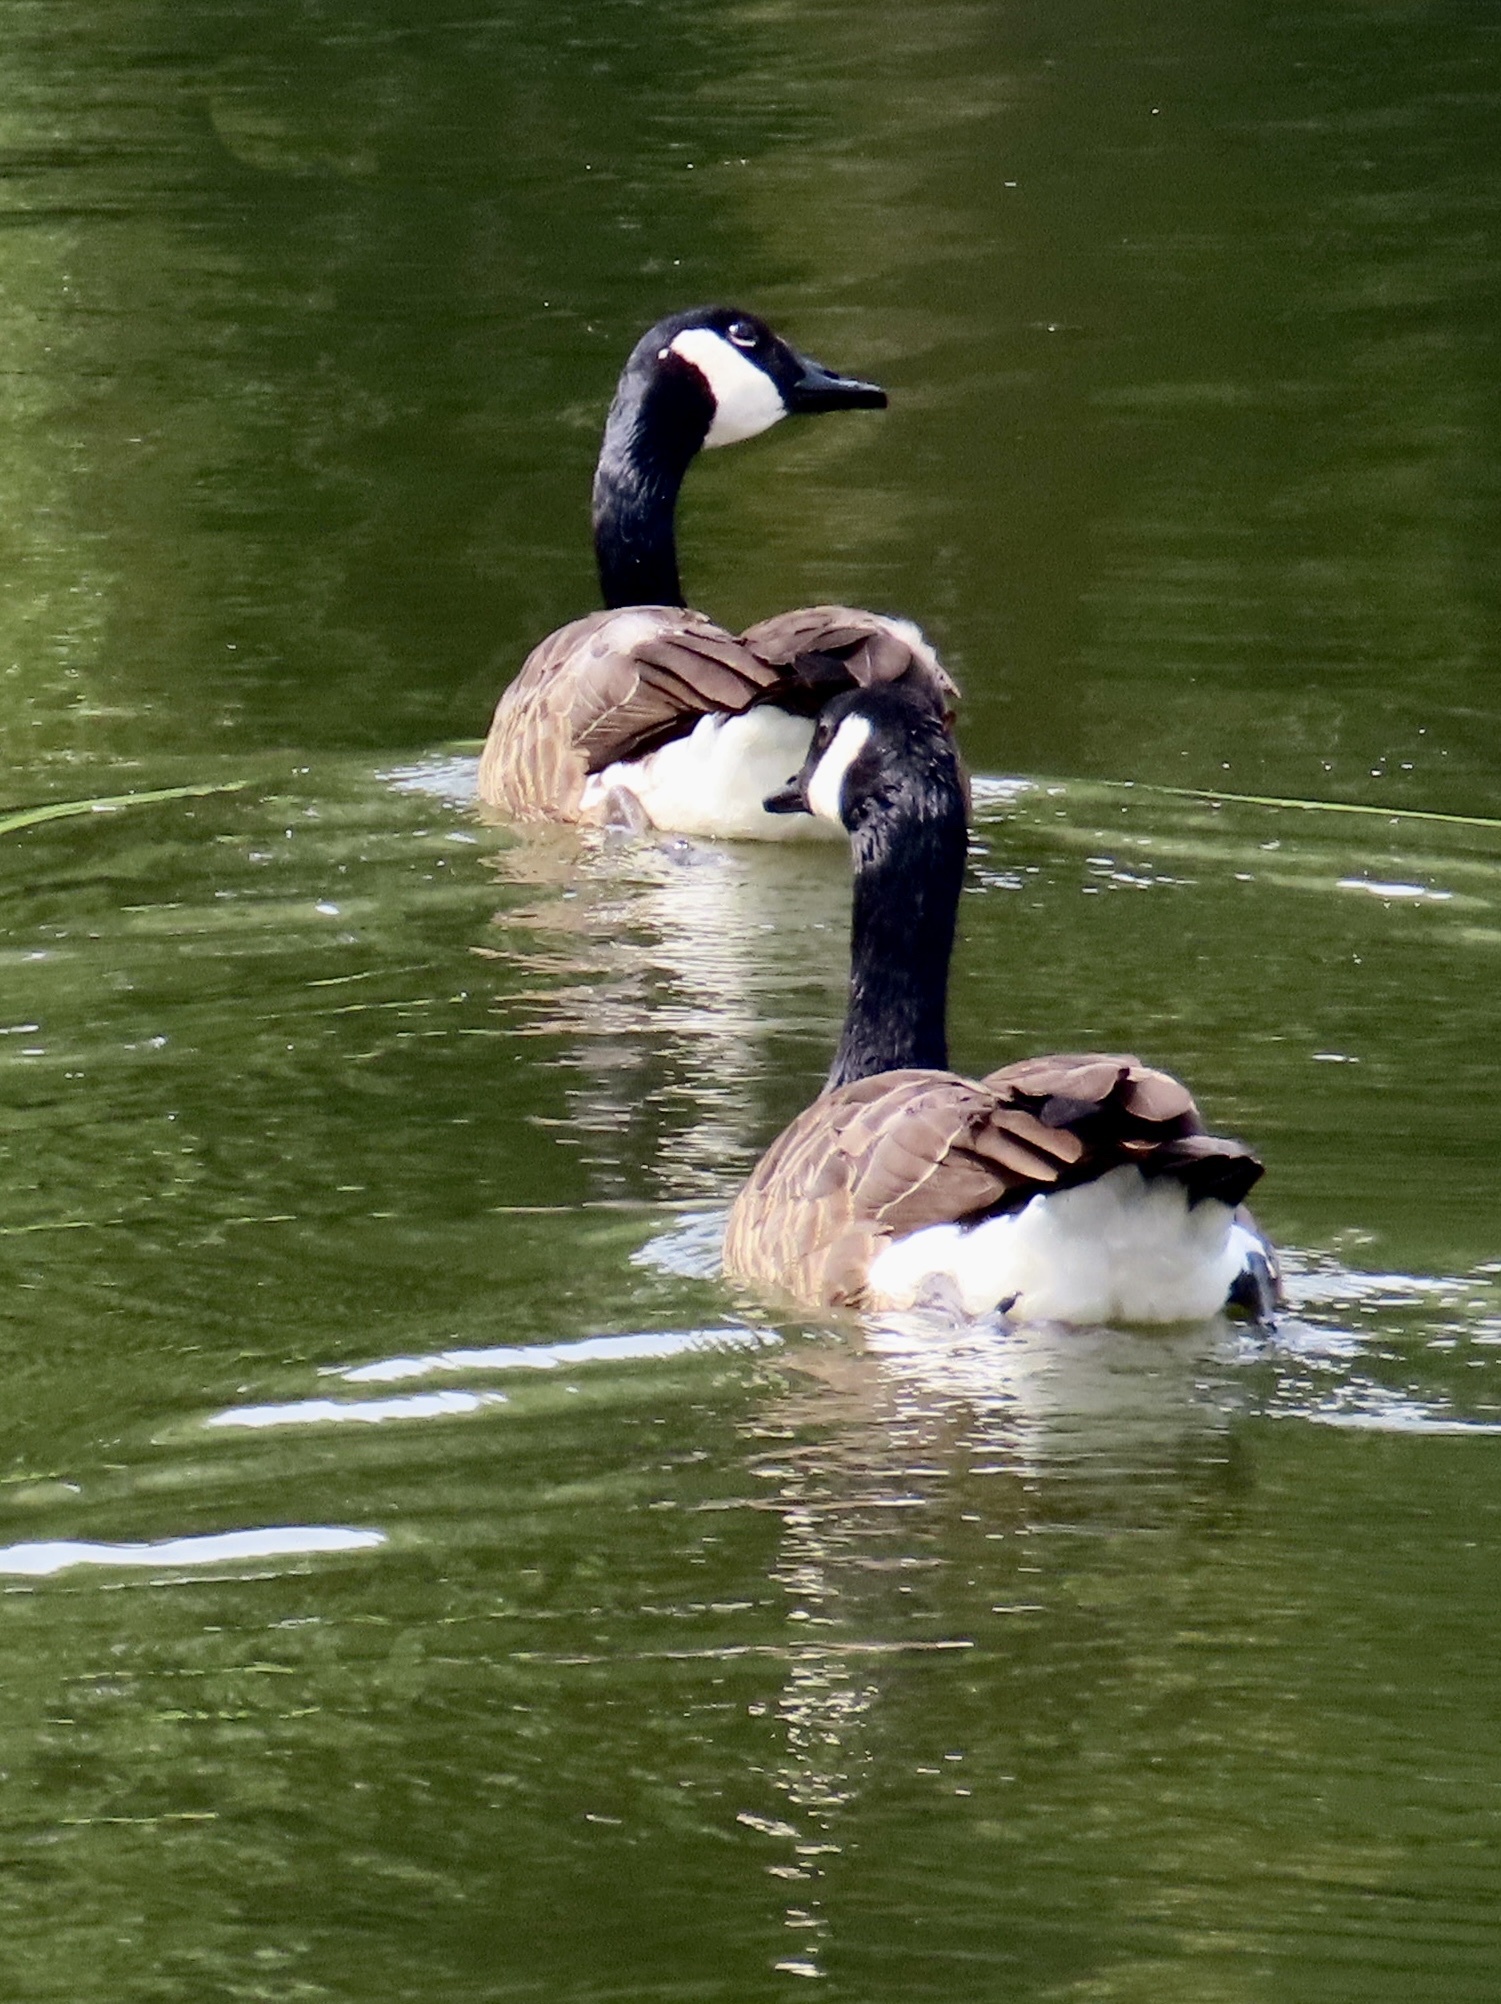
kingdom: Animalia
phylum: Chordata
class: Aves
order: Anseriformes
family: Anatidae
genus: Branta
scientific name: Branta canadensis
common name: Canada goose
